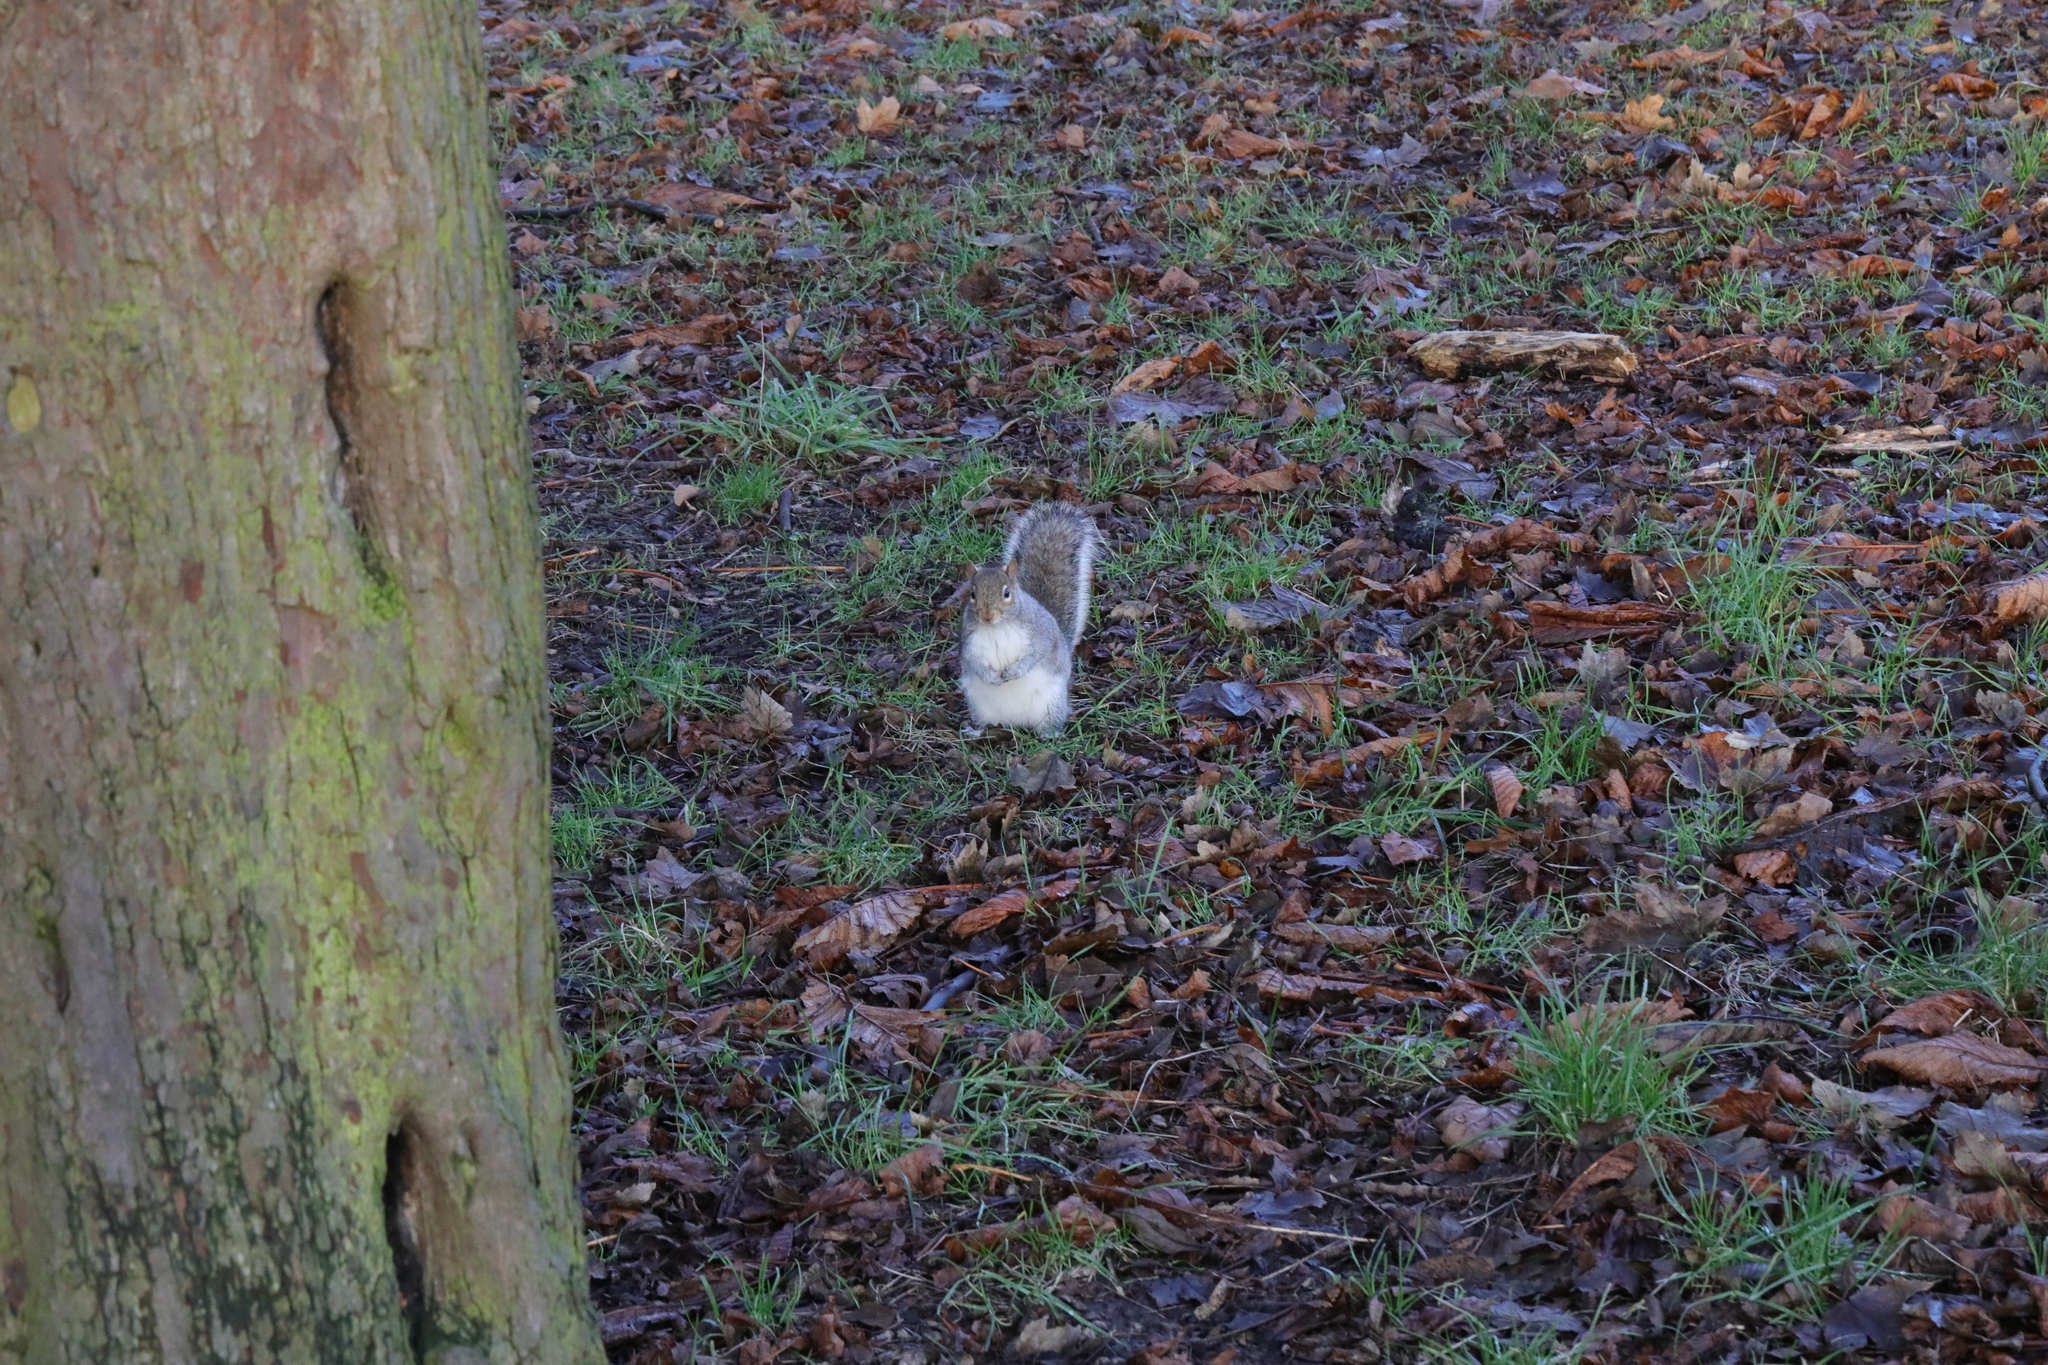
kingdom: Animalia
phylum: Chordata
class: Mammalia
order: Rodentia
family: Sciuridae
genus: Sciurus
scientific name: Sciurus carolinensis
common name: Eastern gray squirrel
